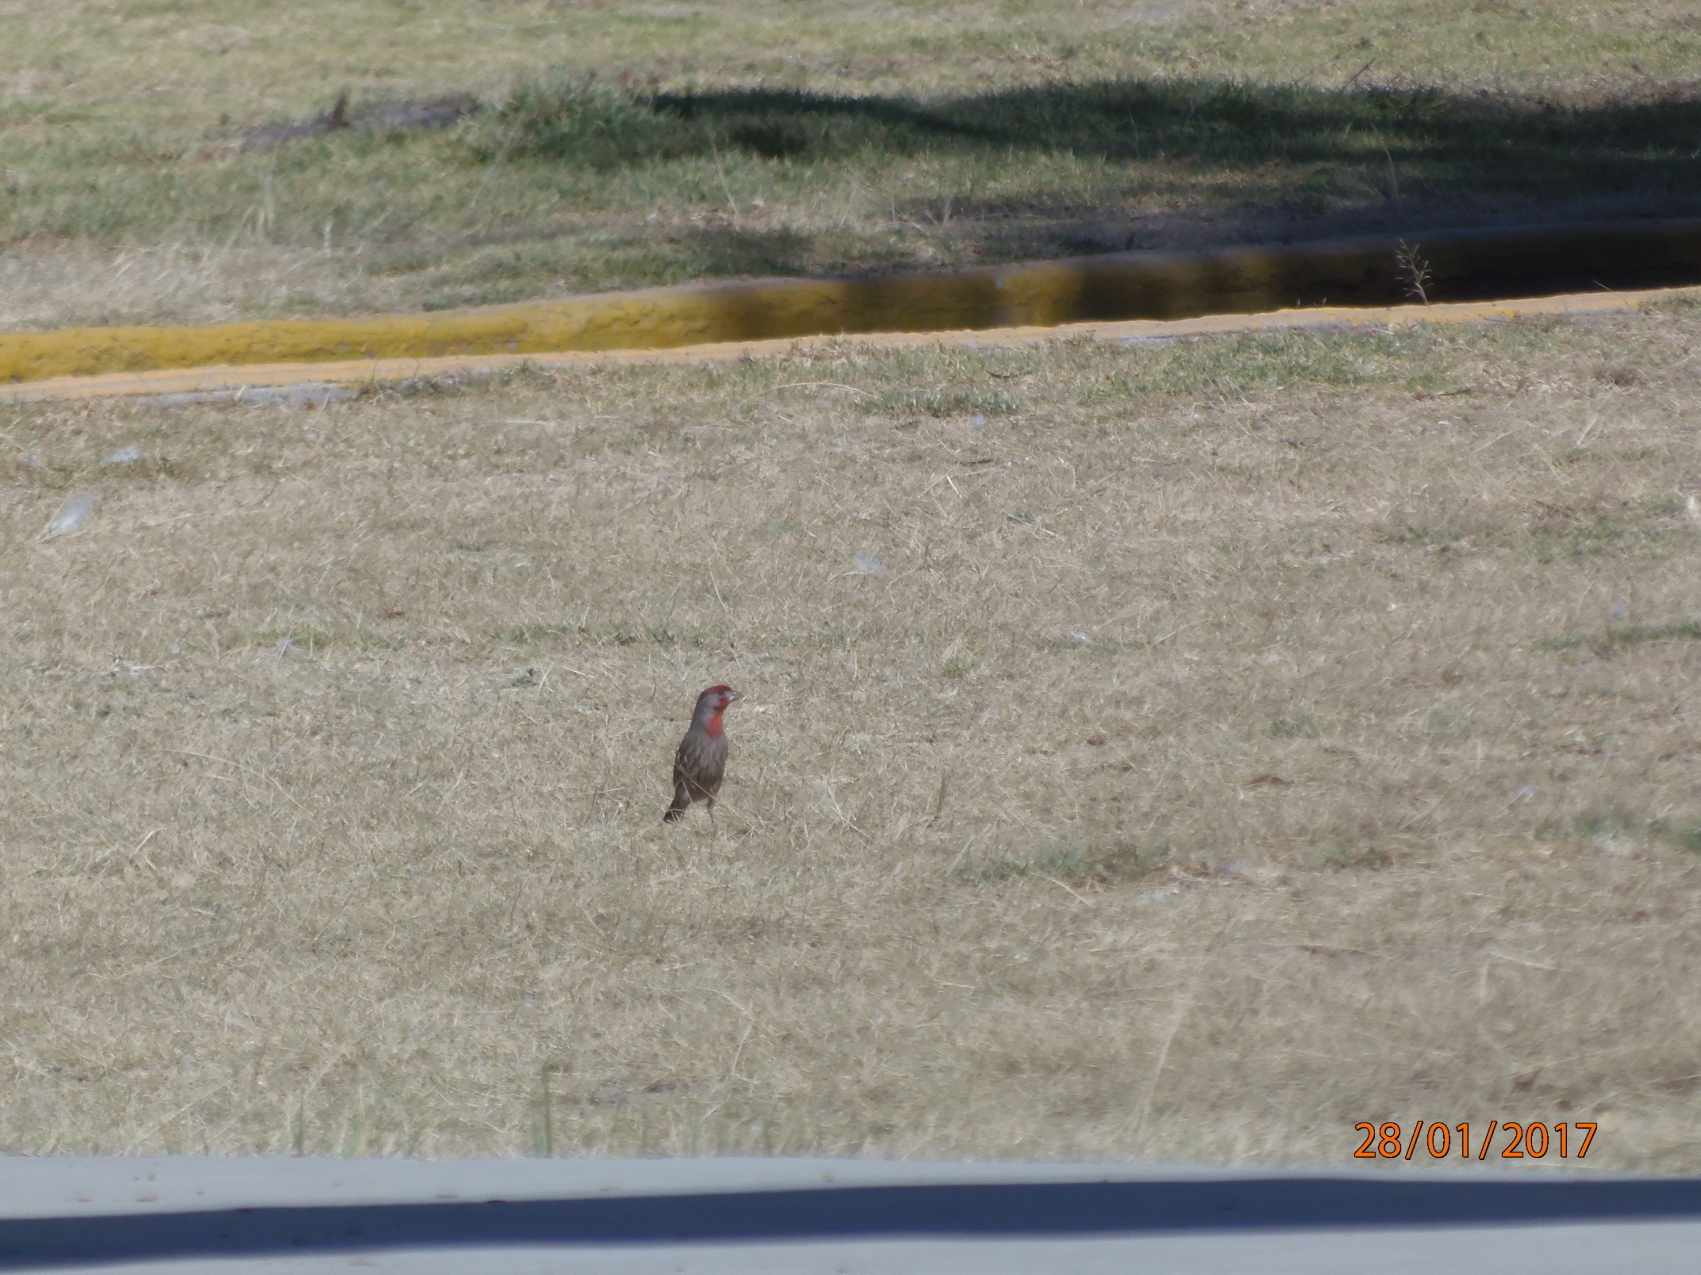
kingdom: Animalia
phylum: Chordata
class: Aves
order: Passeriformes
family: Fringillidae
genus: Haemorhous
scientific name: Haemorhous mexicanus
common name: House finch
